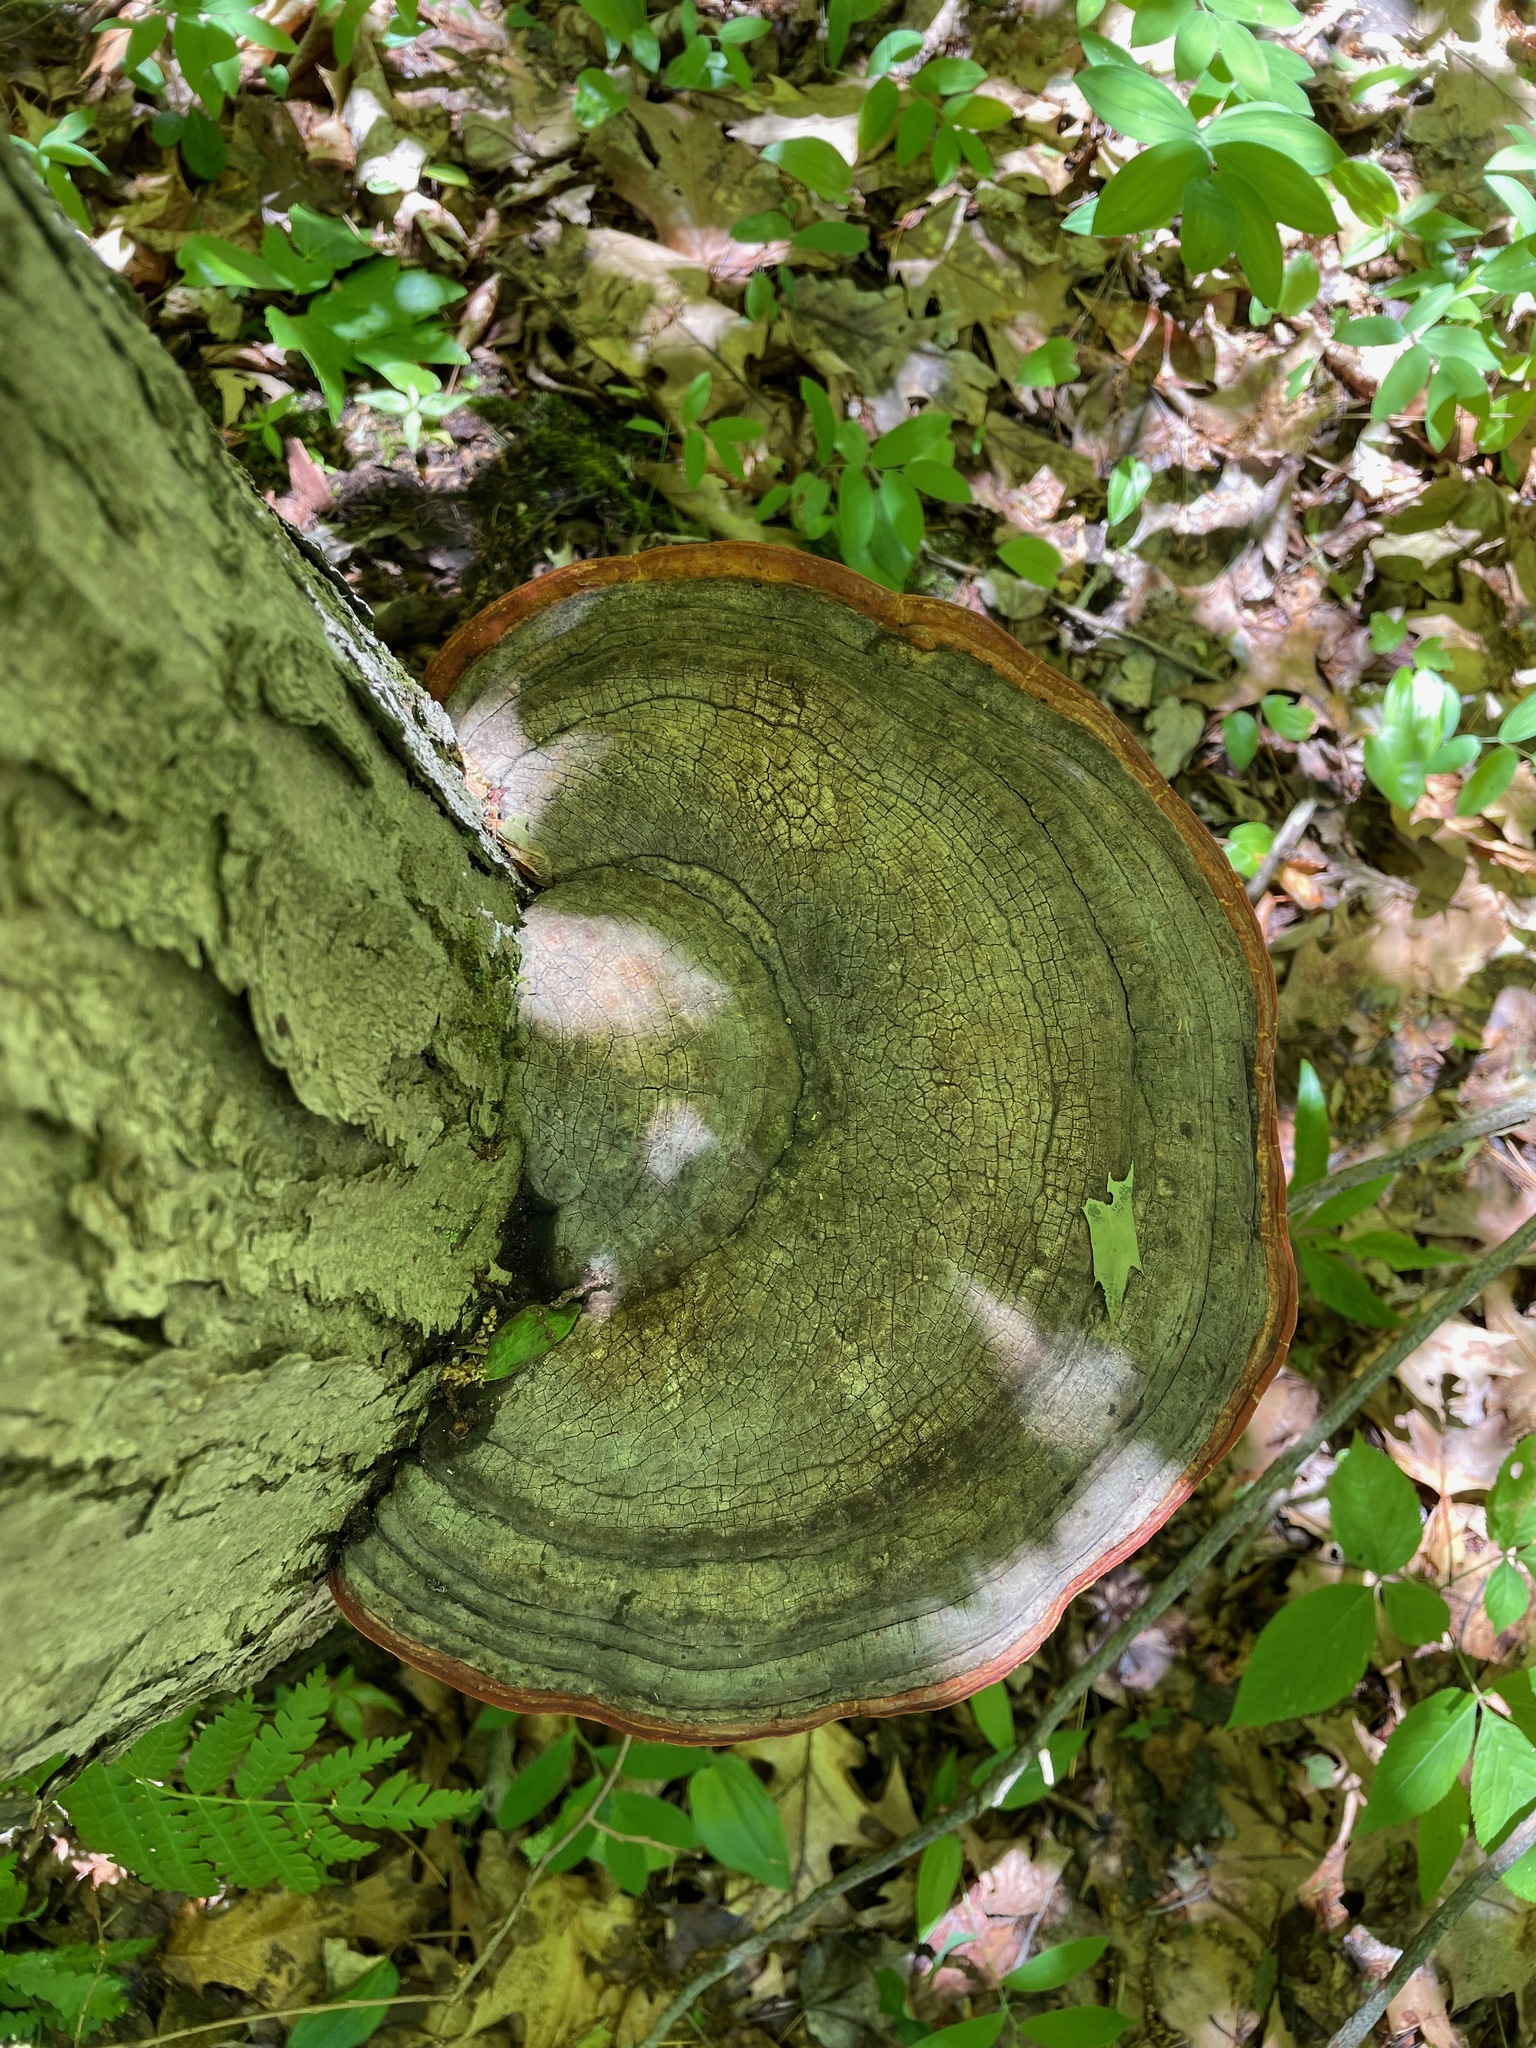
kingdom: Fungi
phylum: Basidiomycota
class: Agaricomycetes
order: Polyporales
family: Fomitopsidaceae
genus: Fomitopsis
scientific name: Fomitopsis mounceae
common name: Northern red belt
